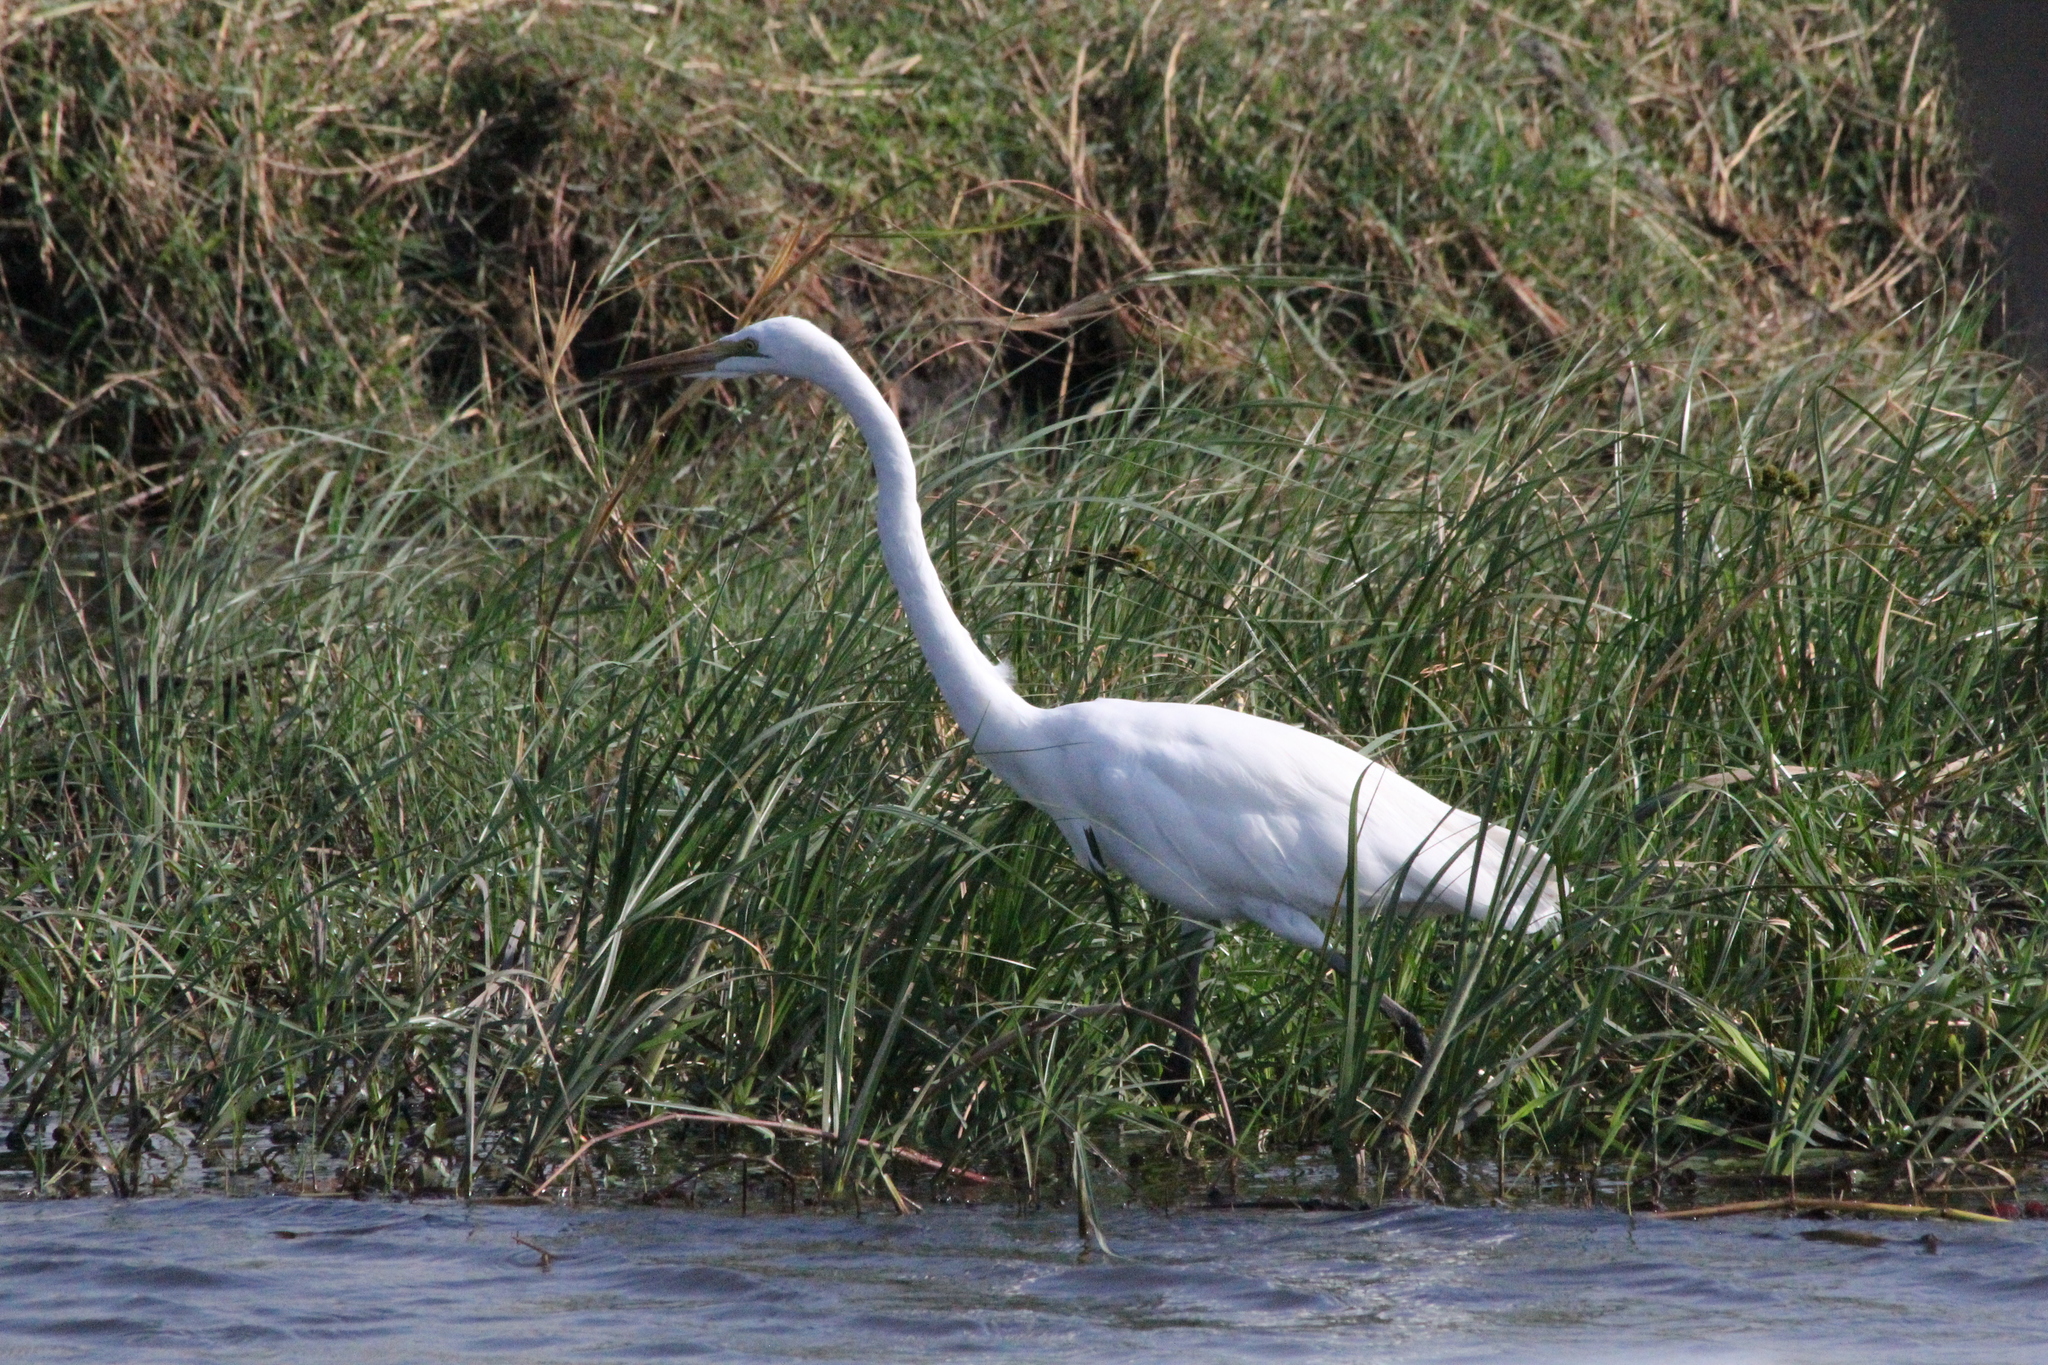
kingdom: Animalia
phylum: Chordata
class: Aves
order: Pelecaniformes
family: Ardeidae
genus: Ardea
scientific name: Ardea alba
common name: Great egret
